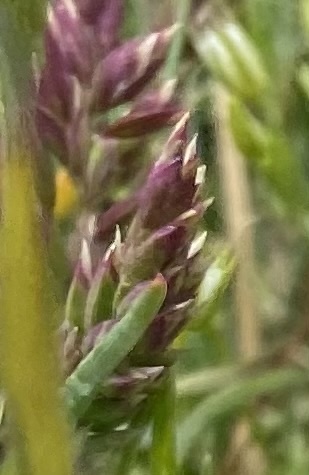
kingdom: Plantae
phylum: Tracheophyta
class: Liliopsida
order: Poales
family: Poaceae
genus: Poa
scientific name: Poa alpina
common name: Alpine bluegrass
